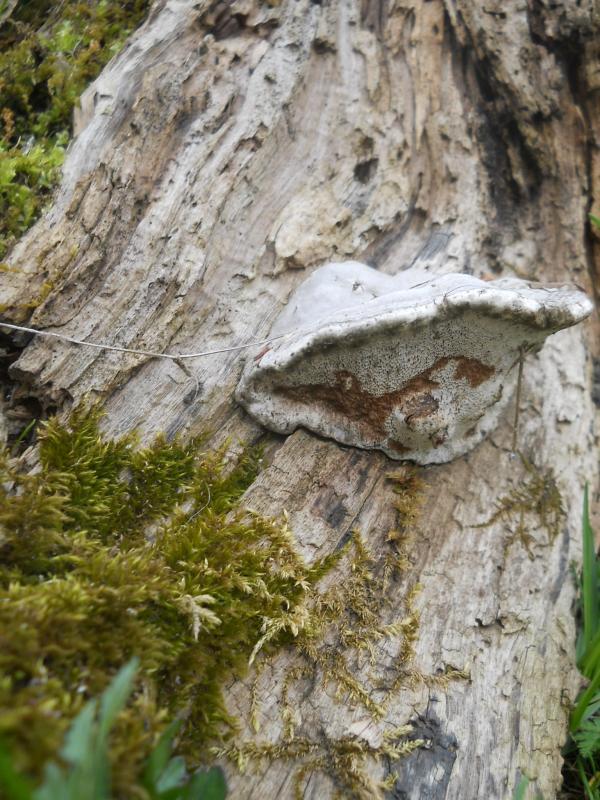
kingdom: Fungi
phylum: Basidiomycota
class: Agaricomycetes
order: Polyporales
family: Polyporaceae
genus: Fomes
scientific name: Fomes fomentarius
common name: Hoof fungus
